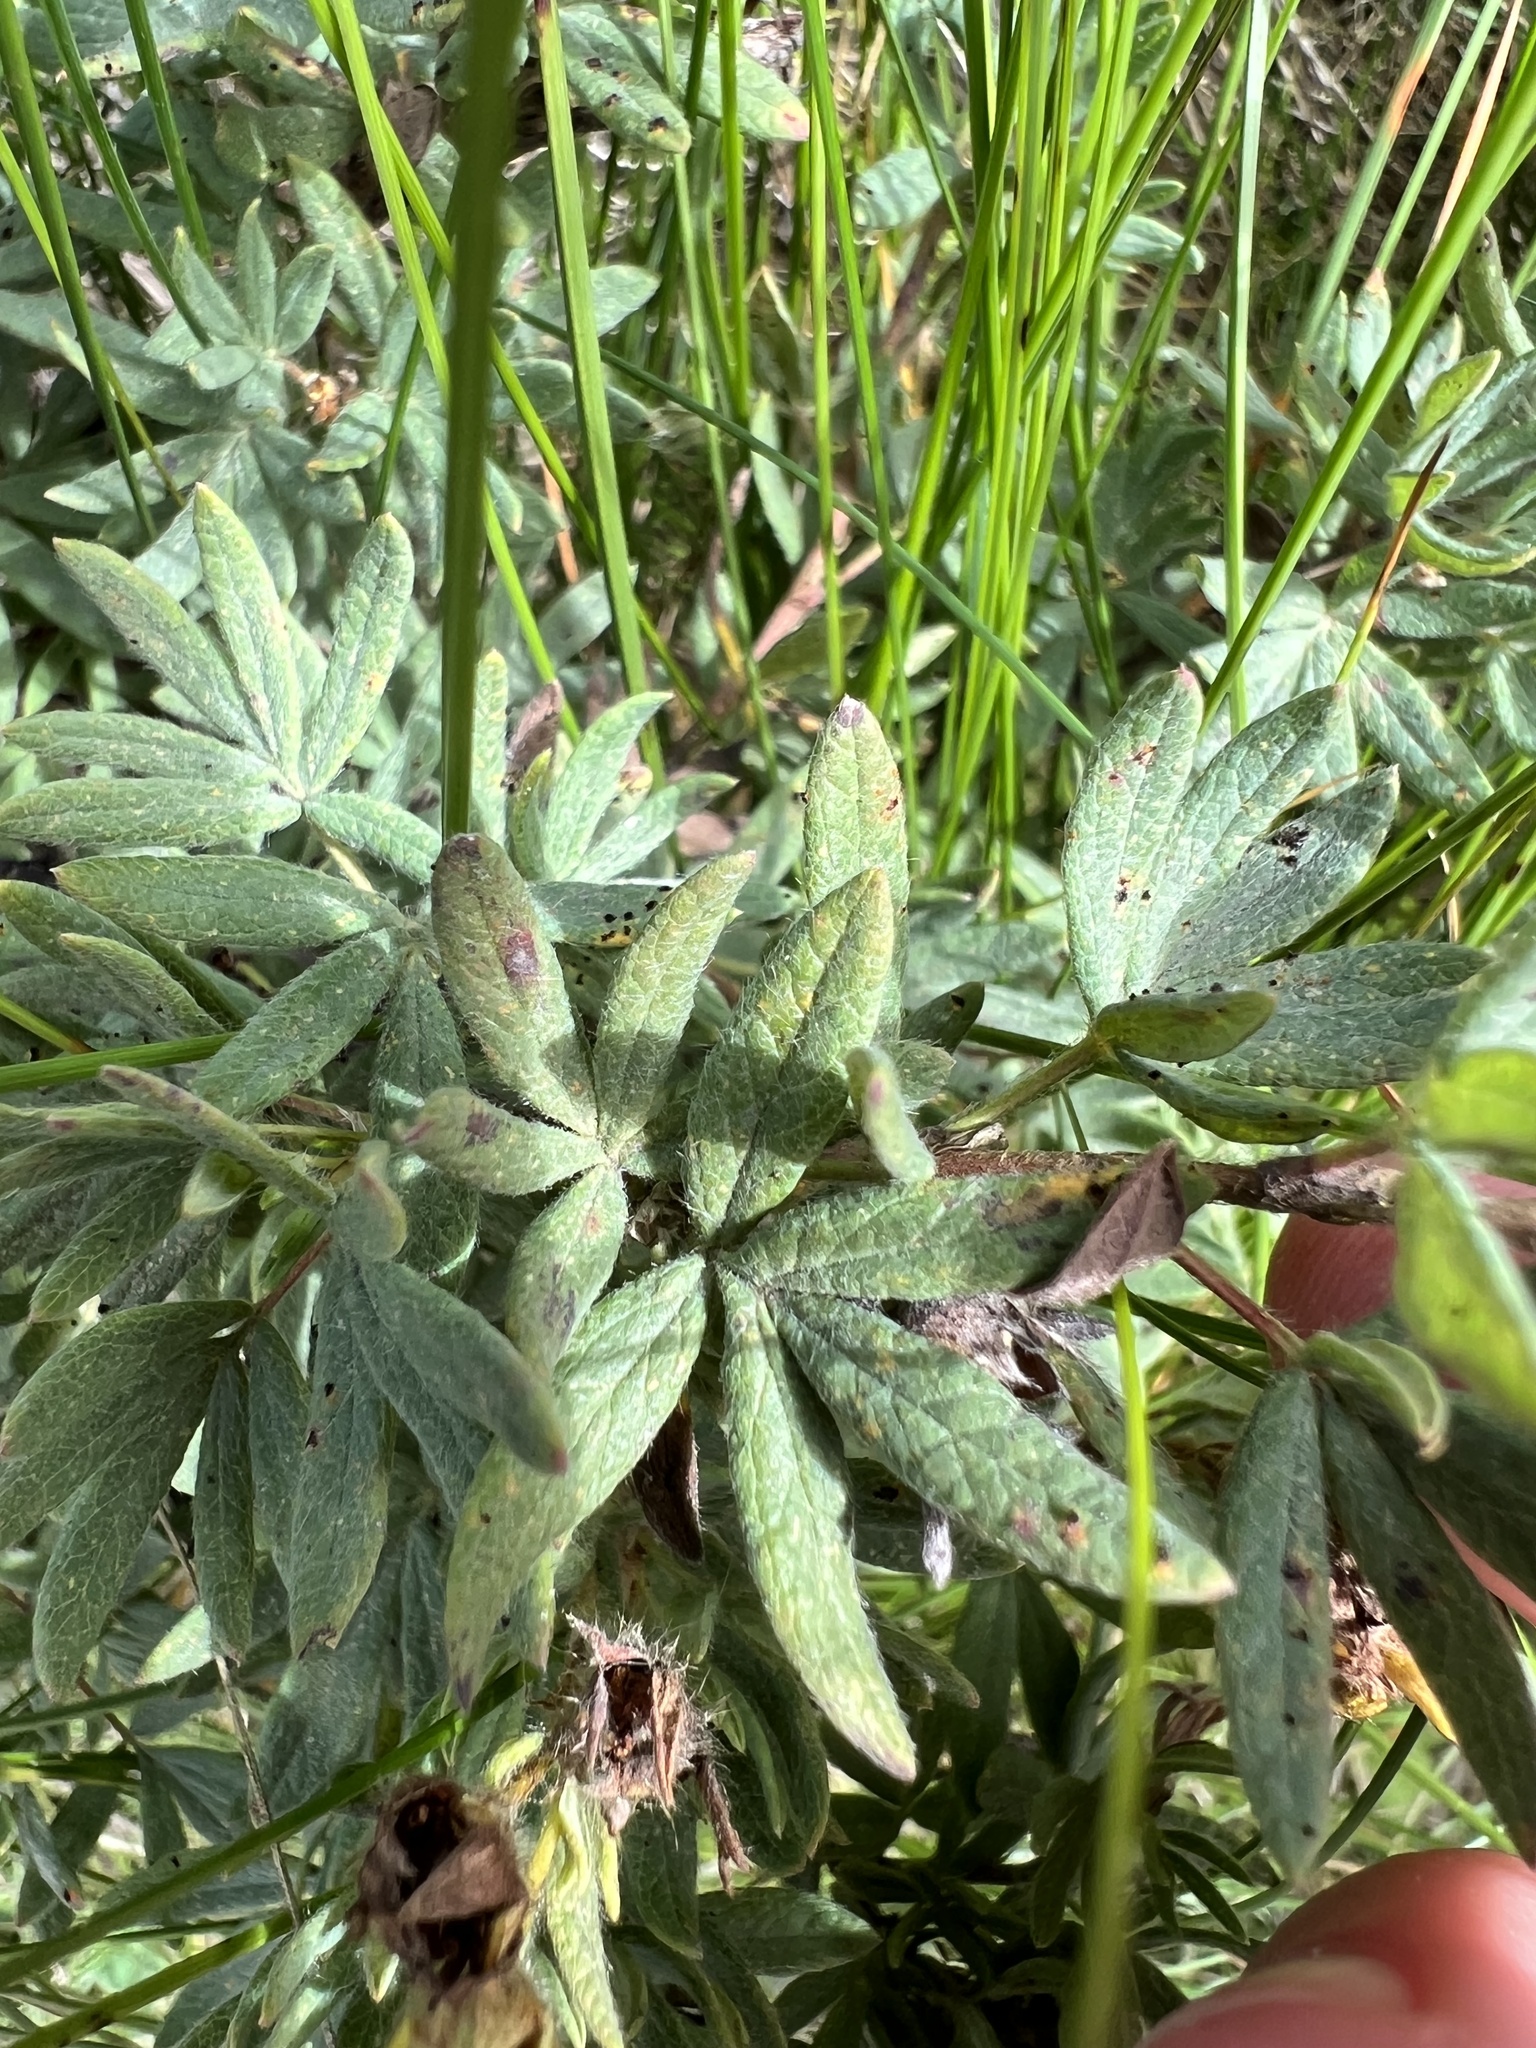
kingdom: Plantae
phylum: Tracheophyta
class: Magnoliopsida
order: Rosales
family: Rosaceae
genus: Dasiphora
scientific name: Dasiphora fruticosa
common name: Shrubby cinquefoil
